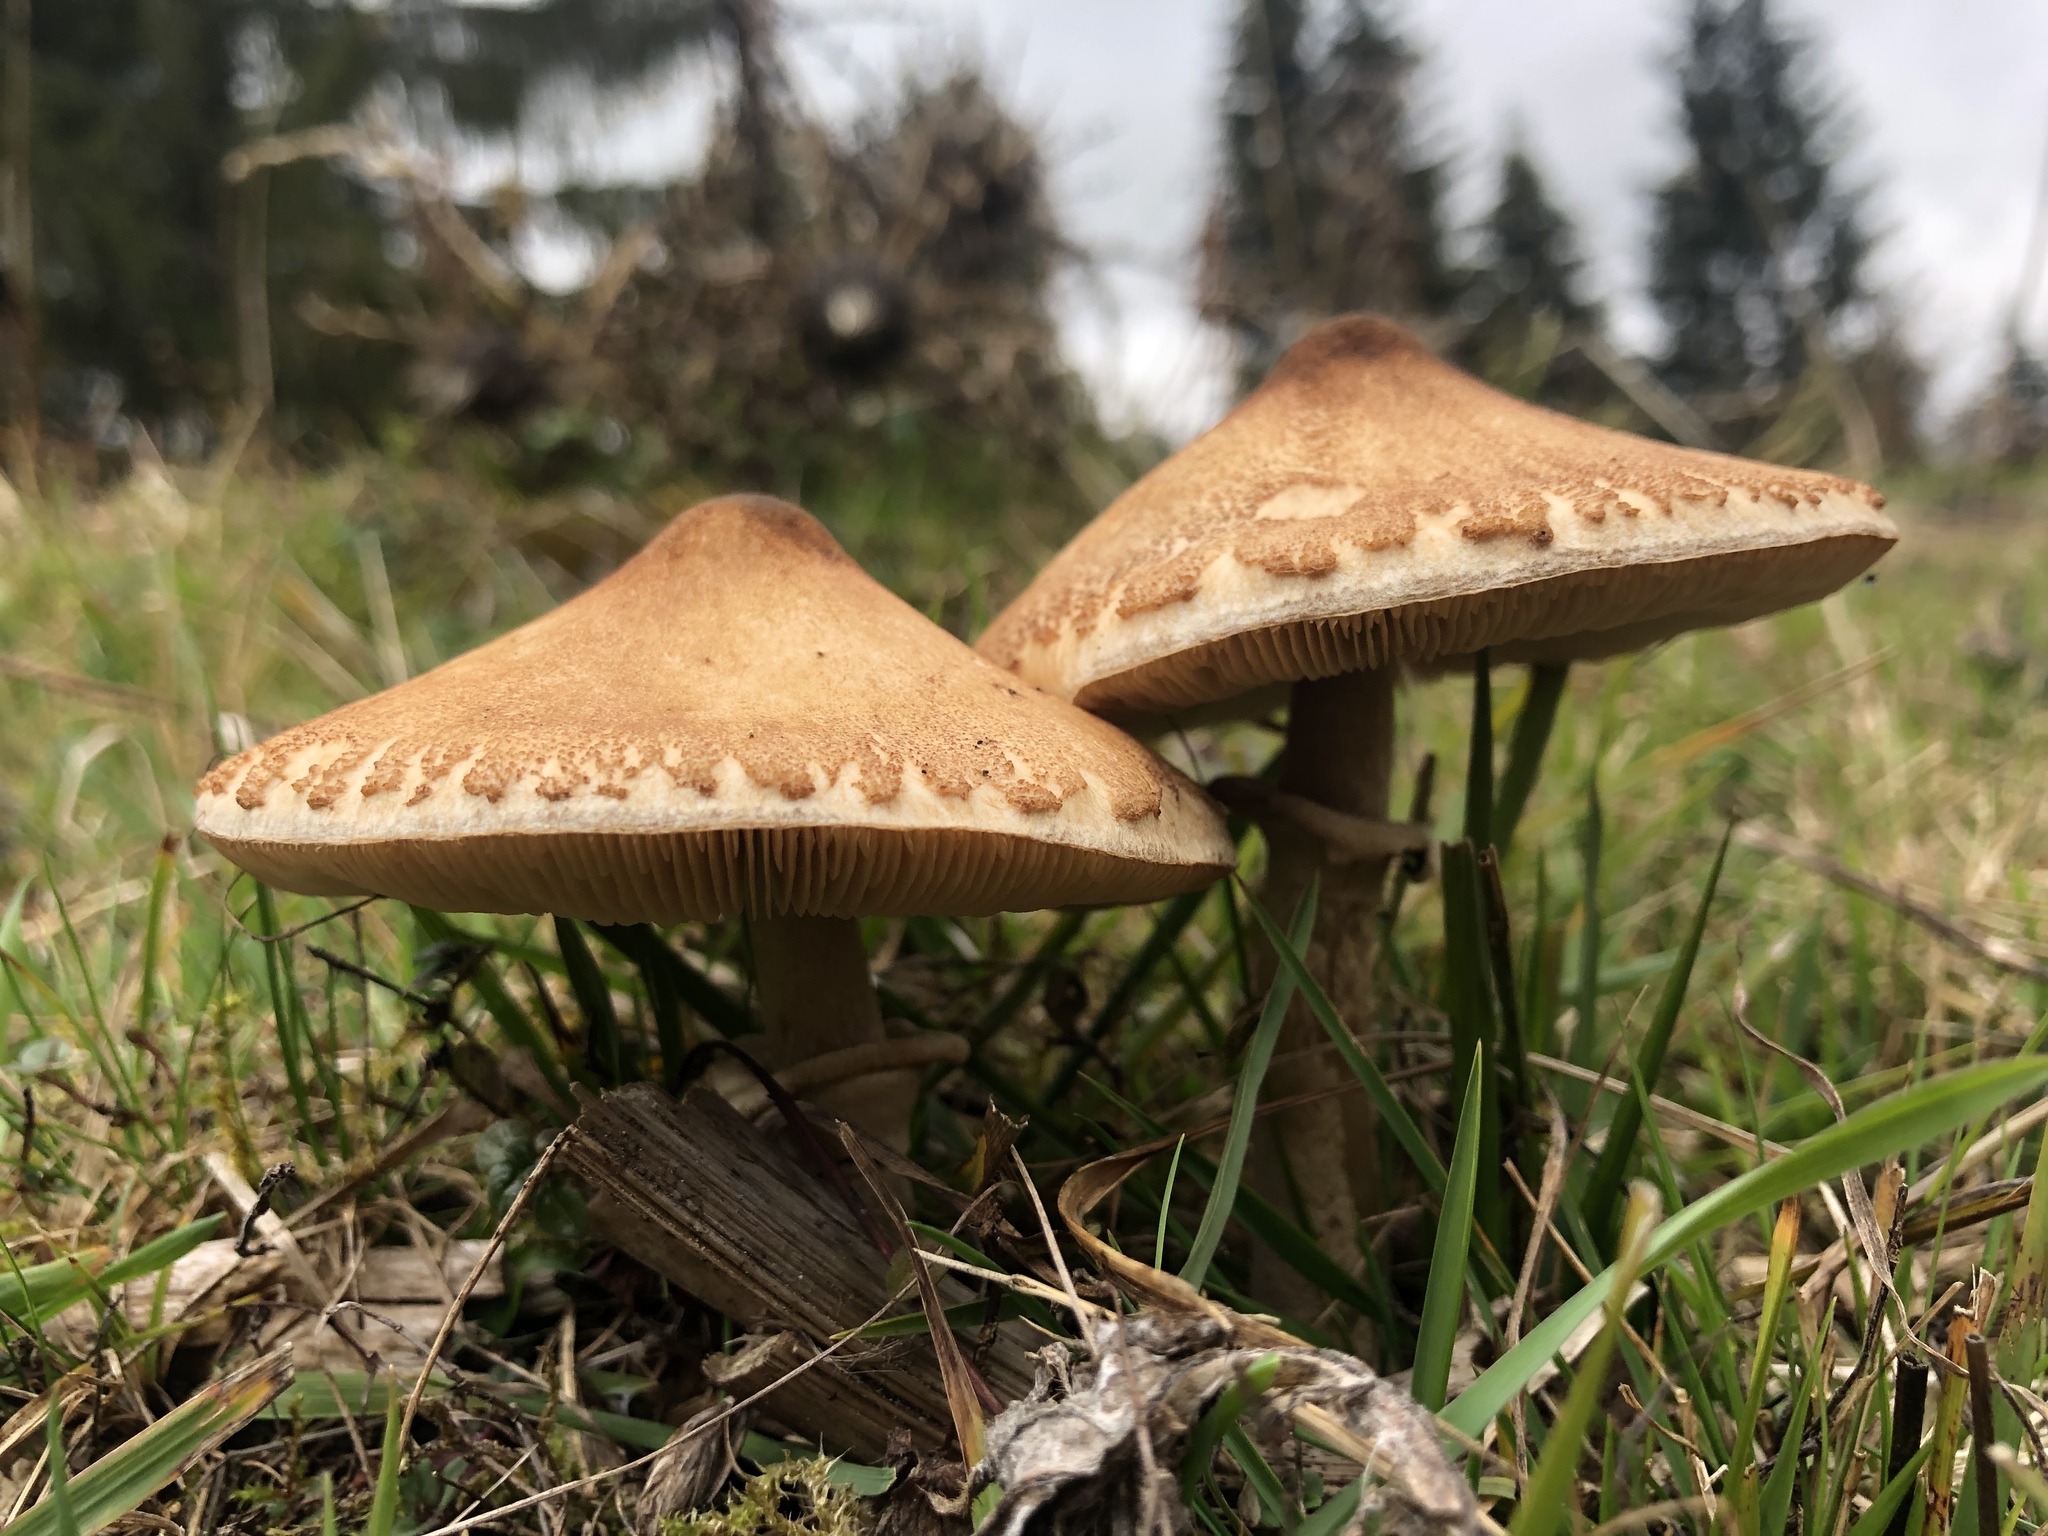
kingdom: Fungi
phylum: Basidiomycota
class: Agaricomycetes
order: Agaricales
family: Agaricaceae
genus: Macrolepiota
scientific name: Macrolepiota procera
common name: Parasol
